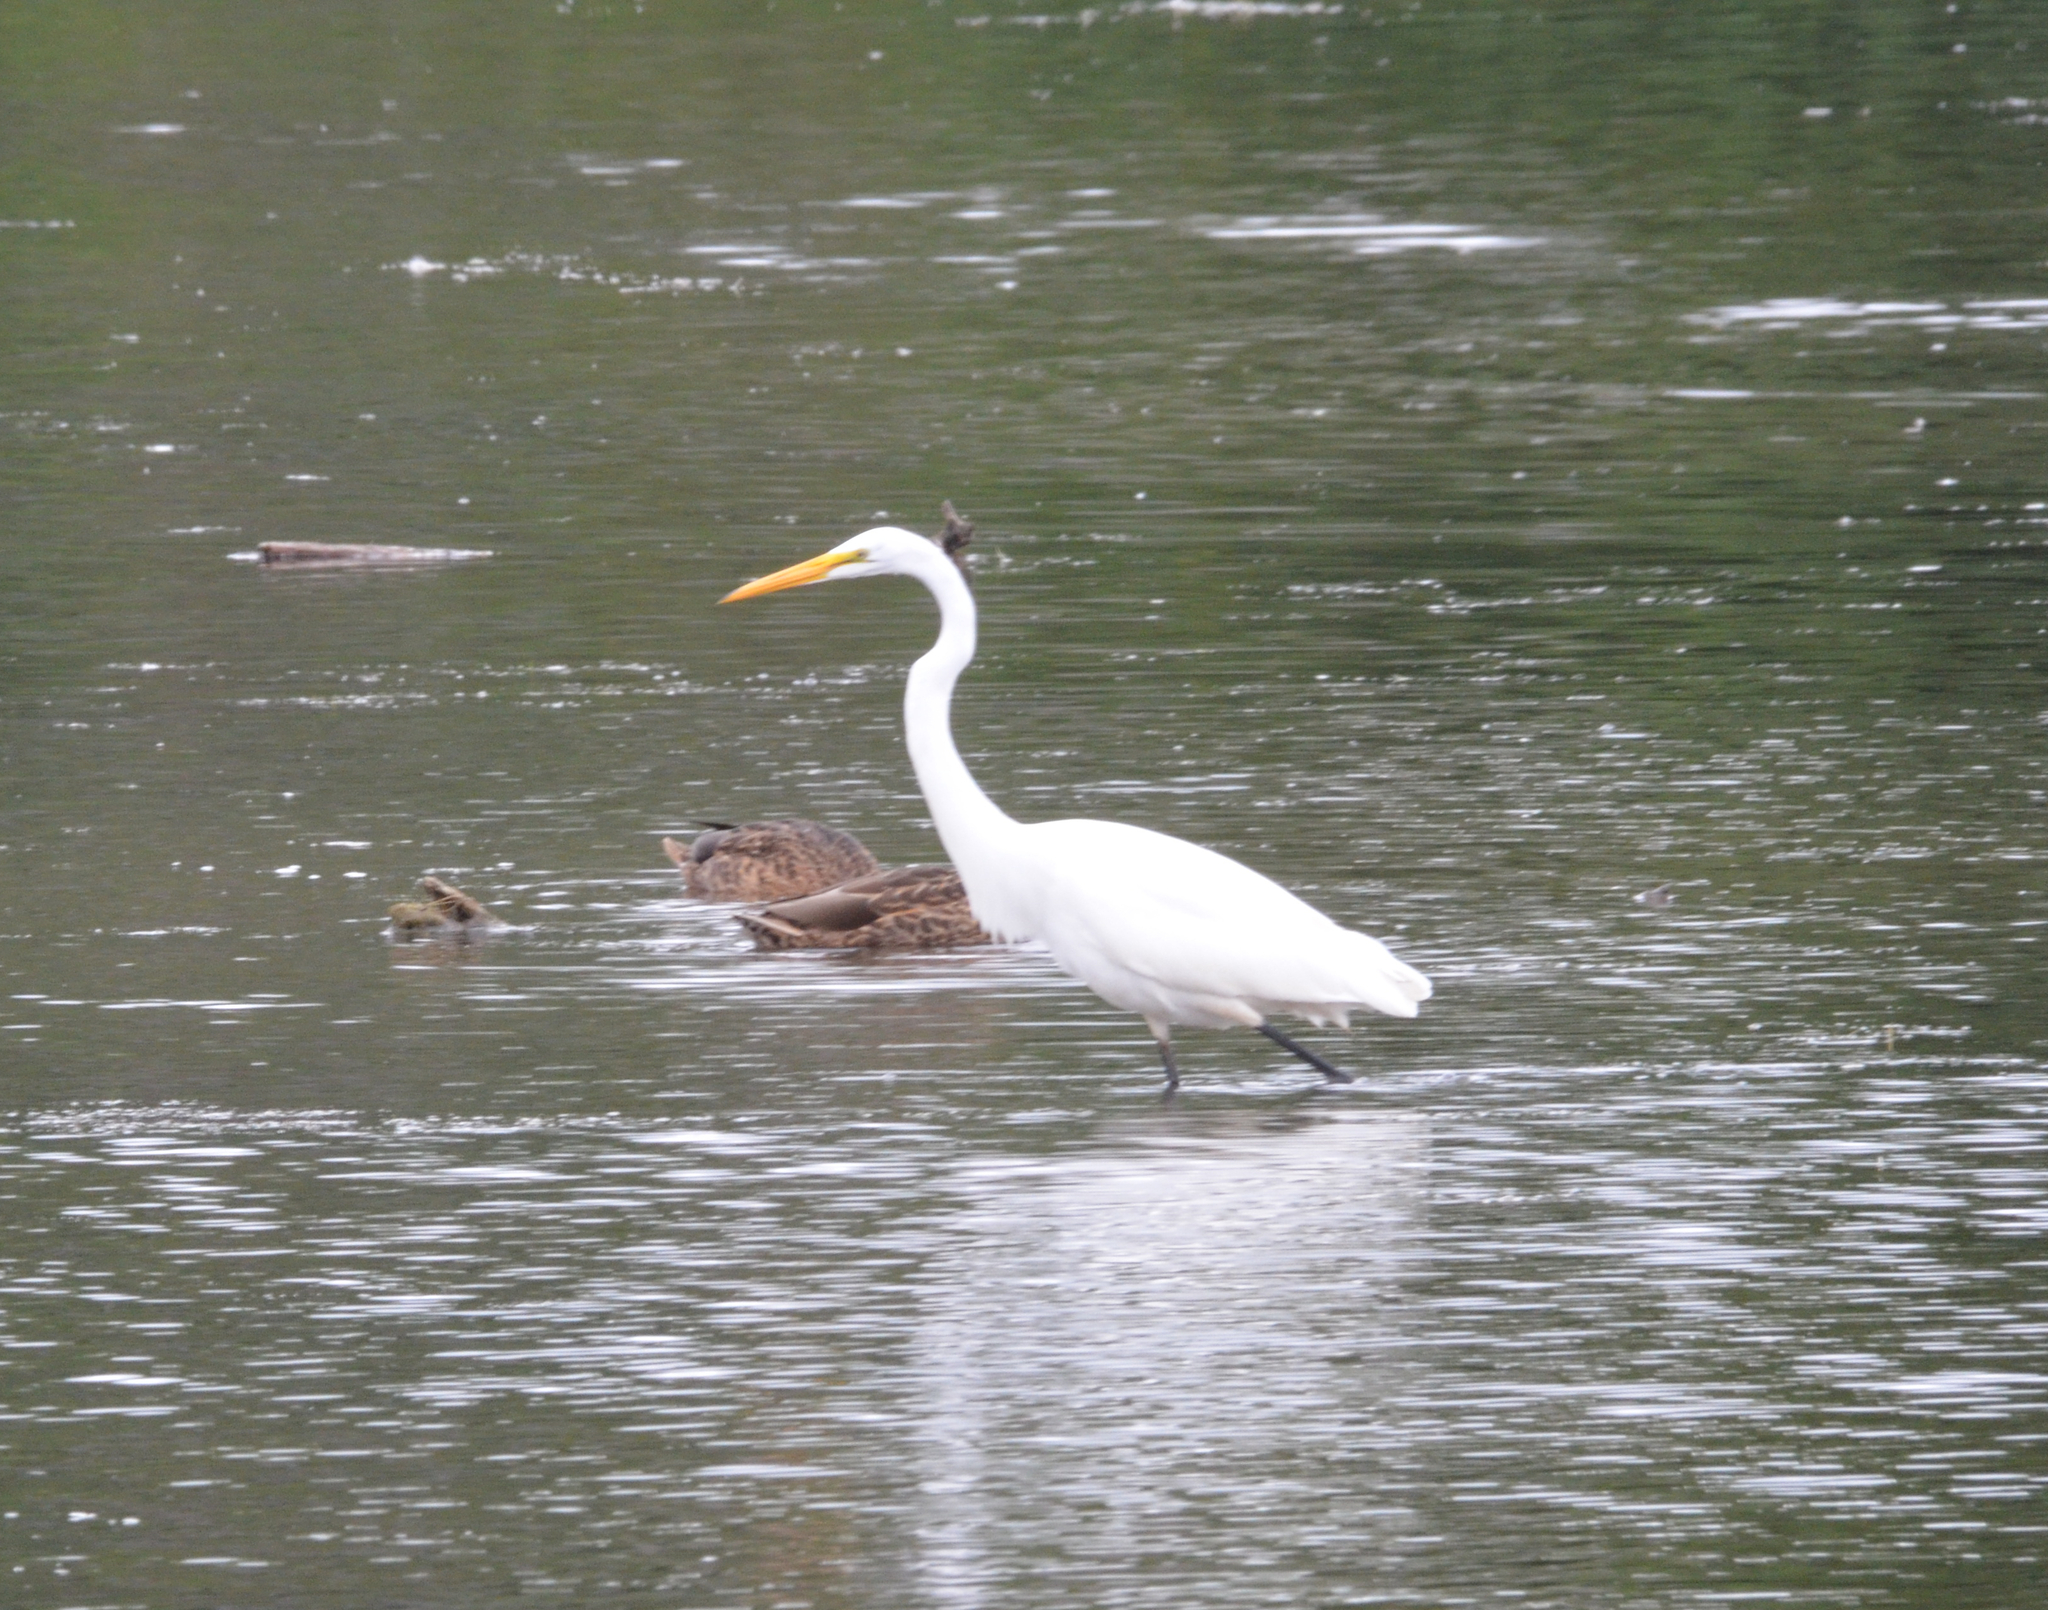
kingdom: Animalia
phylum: Chordata
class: Aves
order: Pelecaniformes
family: Ardeidae
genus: Ardea
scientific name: Ardea alba
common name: Great egret
